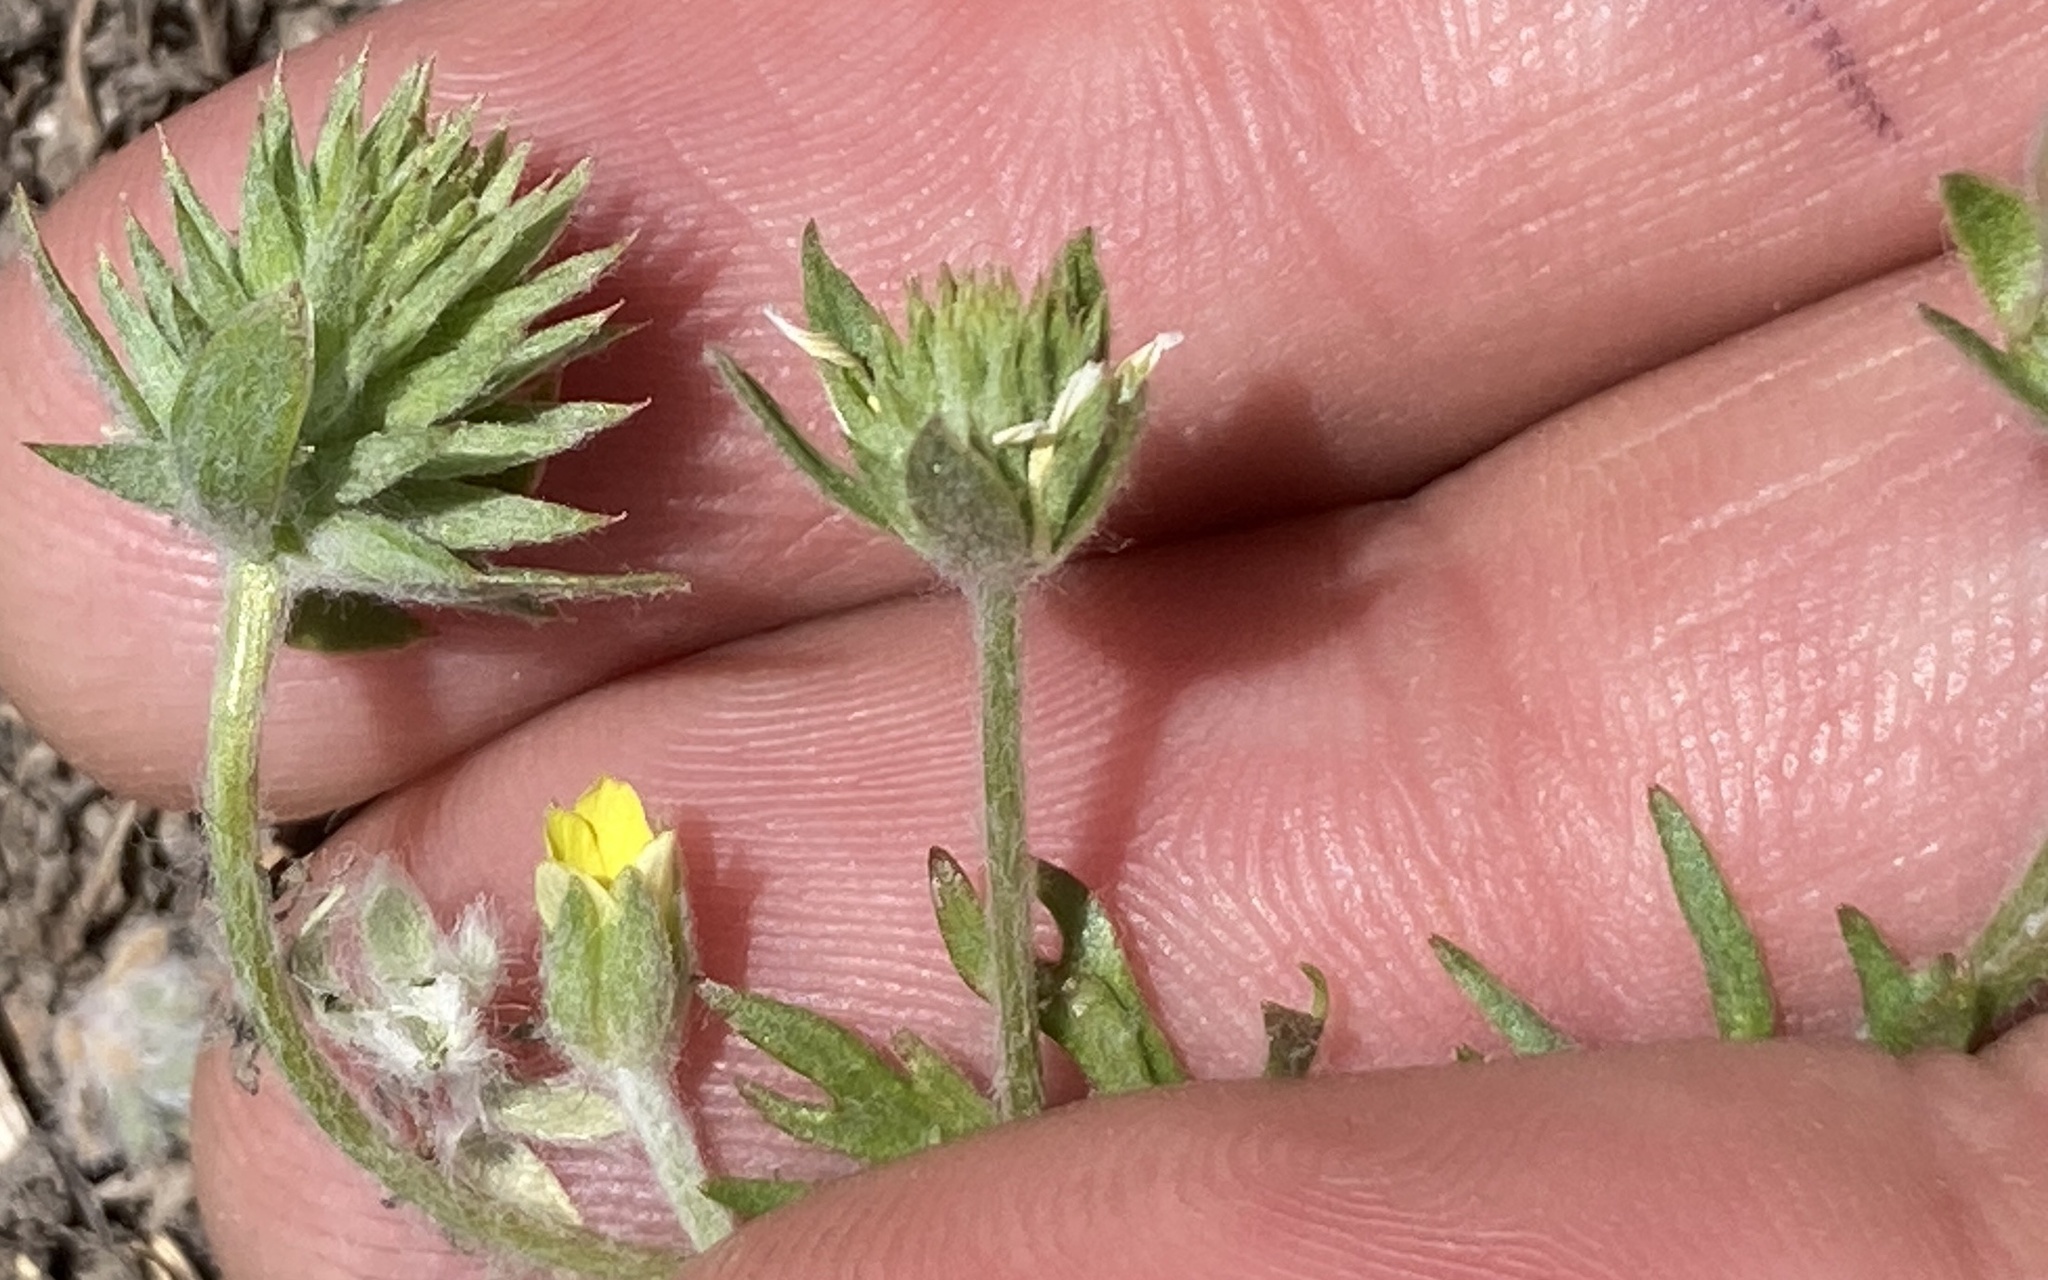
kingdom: Plantae
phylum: Tracheophyta
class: Magnoliopsida
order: Ranunculales
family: Ranunculaceae
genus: Ceratocephala
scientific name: Ceratocephala orthoceras
